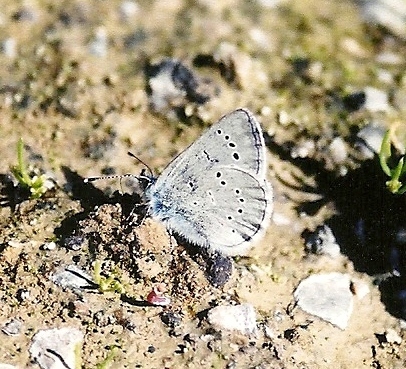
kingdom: Animalia
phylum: Arthropoda
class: Insecta
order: Lepidoptera
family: Lycaenidae
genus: Glaucopsyche
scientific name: Glaucopsyche lygdamus
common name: Silvery blue
